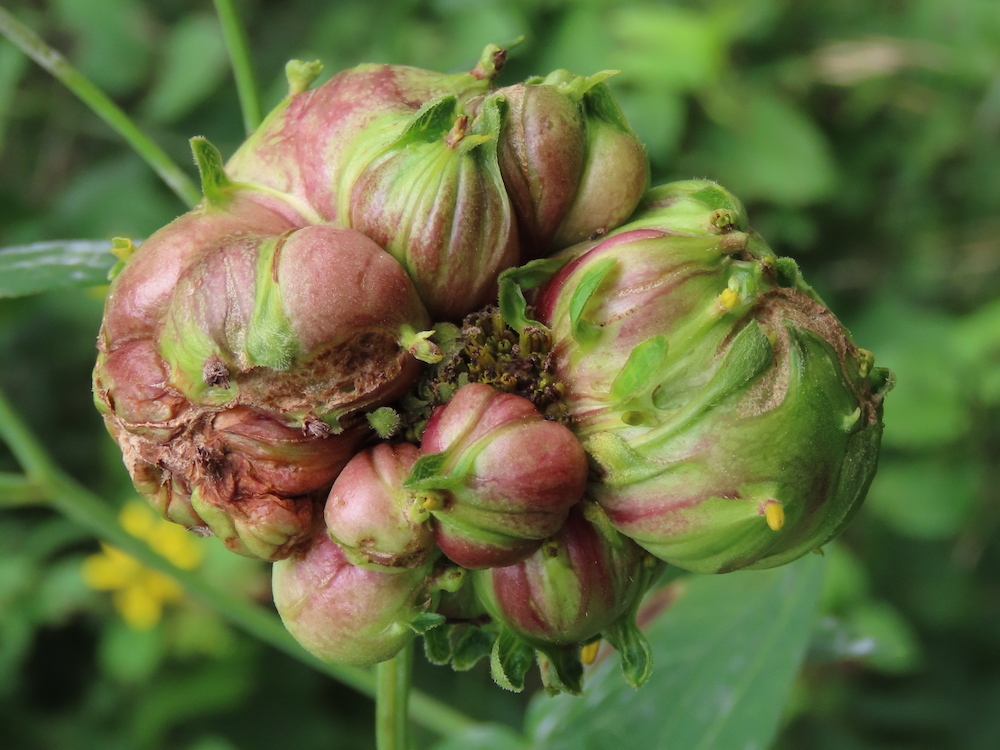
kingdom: Animalia
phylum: Arthropoda
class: Insecta
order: Diptera
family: Cecidomyiidae
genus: Asphondylia
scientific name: Asphondylia rudbeckiaeconspicua
